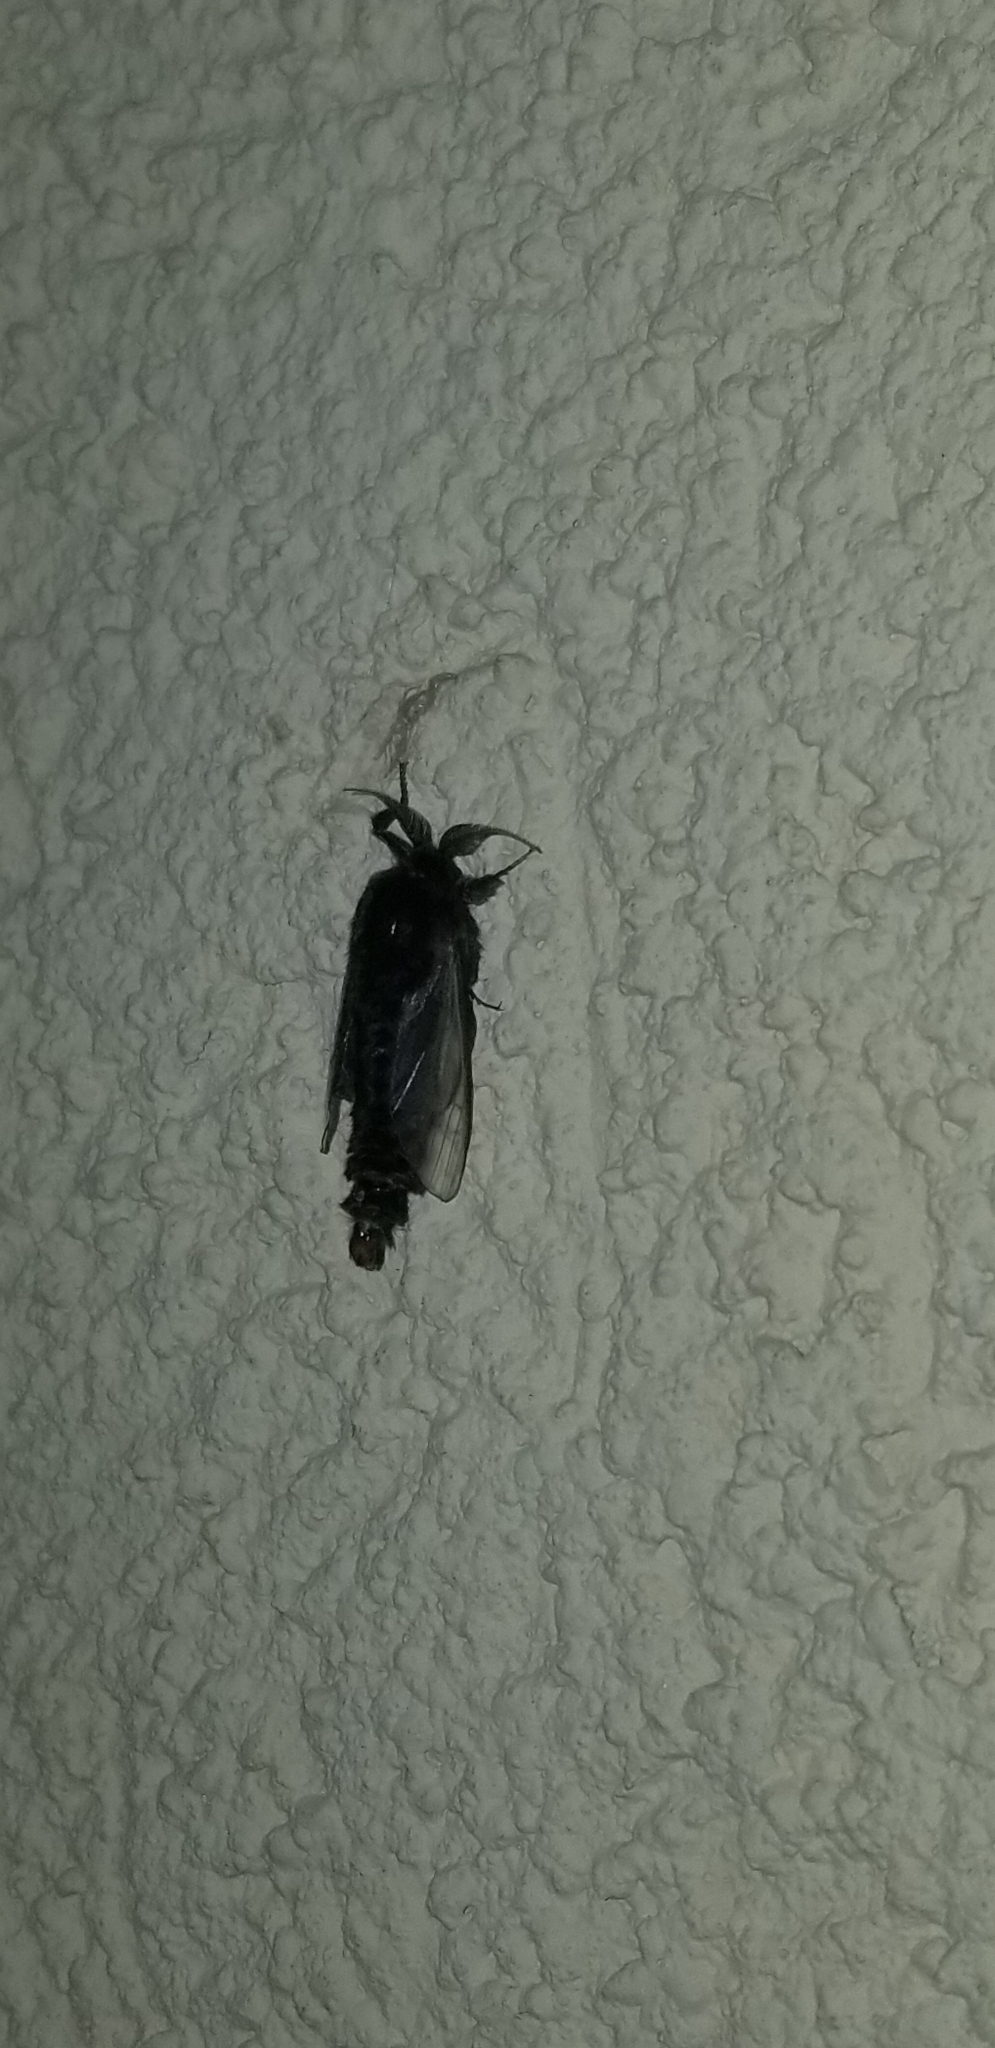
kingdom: Animalia
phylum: Arthropoda
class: Insecta
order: Lepidoptera
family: Psychidae
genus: Thyridopteryx
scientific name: Thyridopteryx ephemeraeformis
